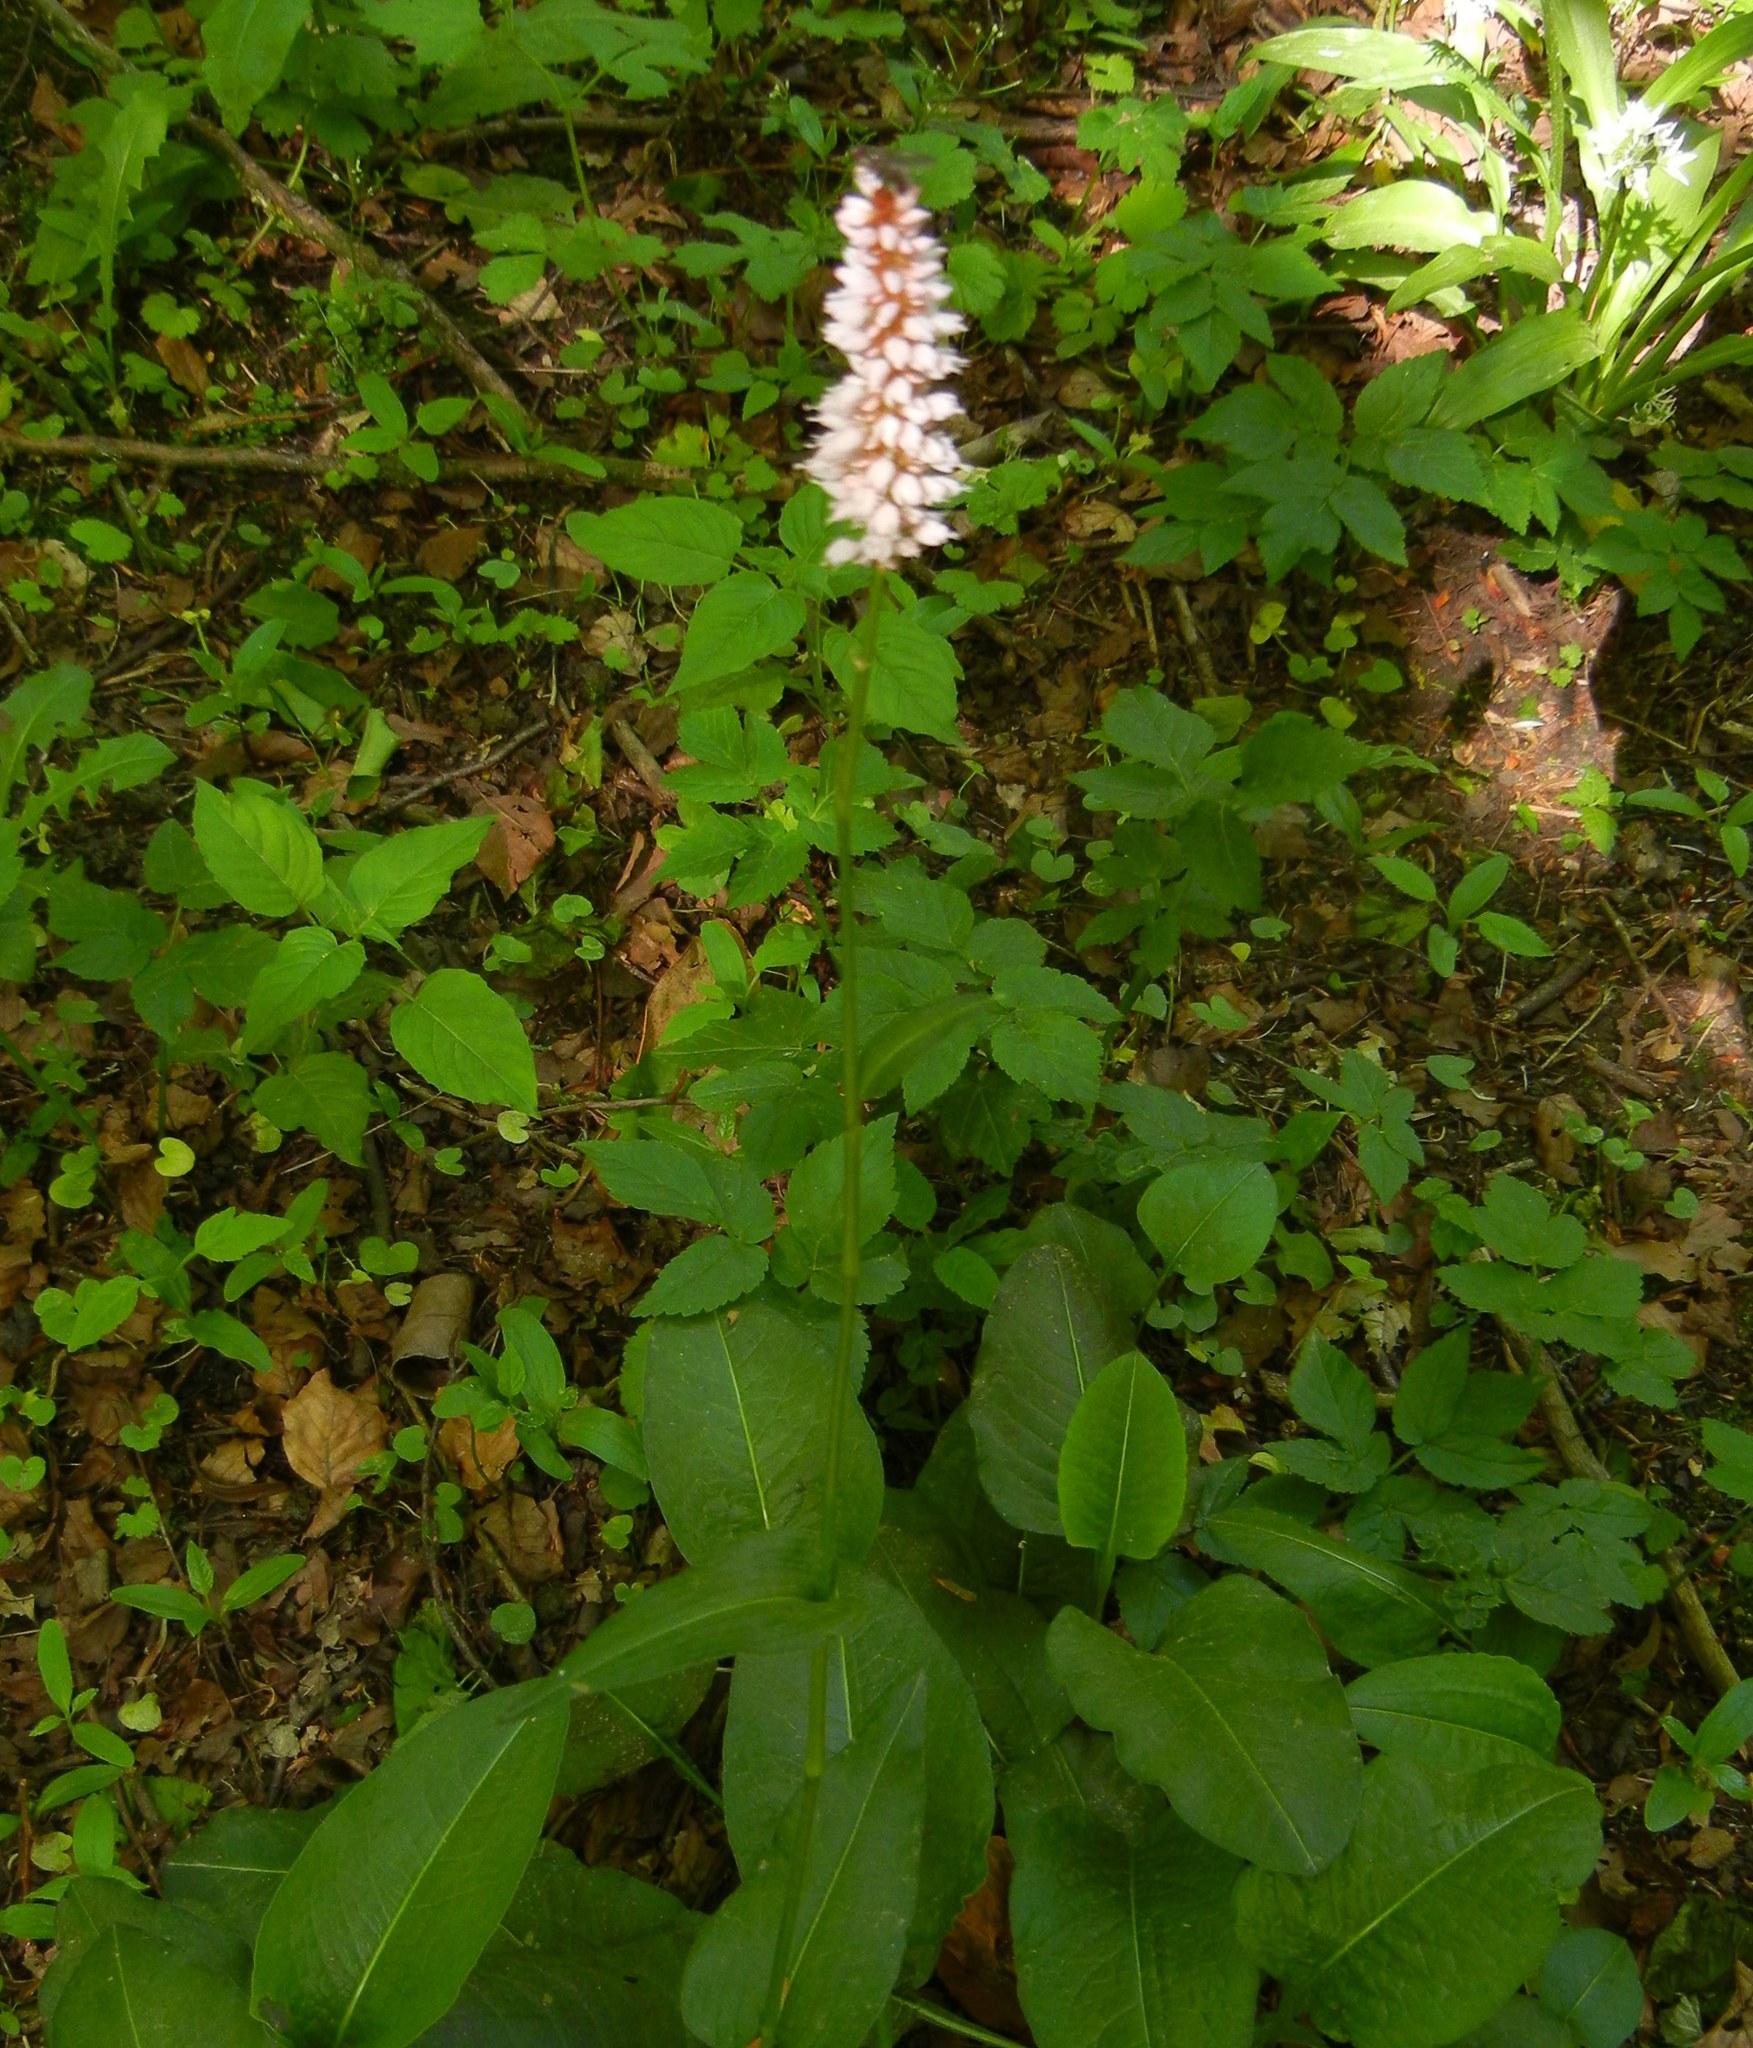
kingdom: Plantae
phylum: Tracheophyta
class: Magnoliopsida
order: Caryophyllales
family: Polygonaceae
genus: Bistorta
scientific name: Bistorta officinalis
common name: Common bistort
